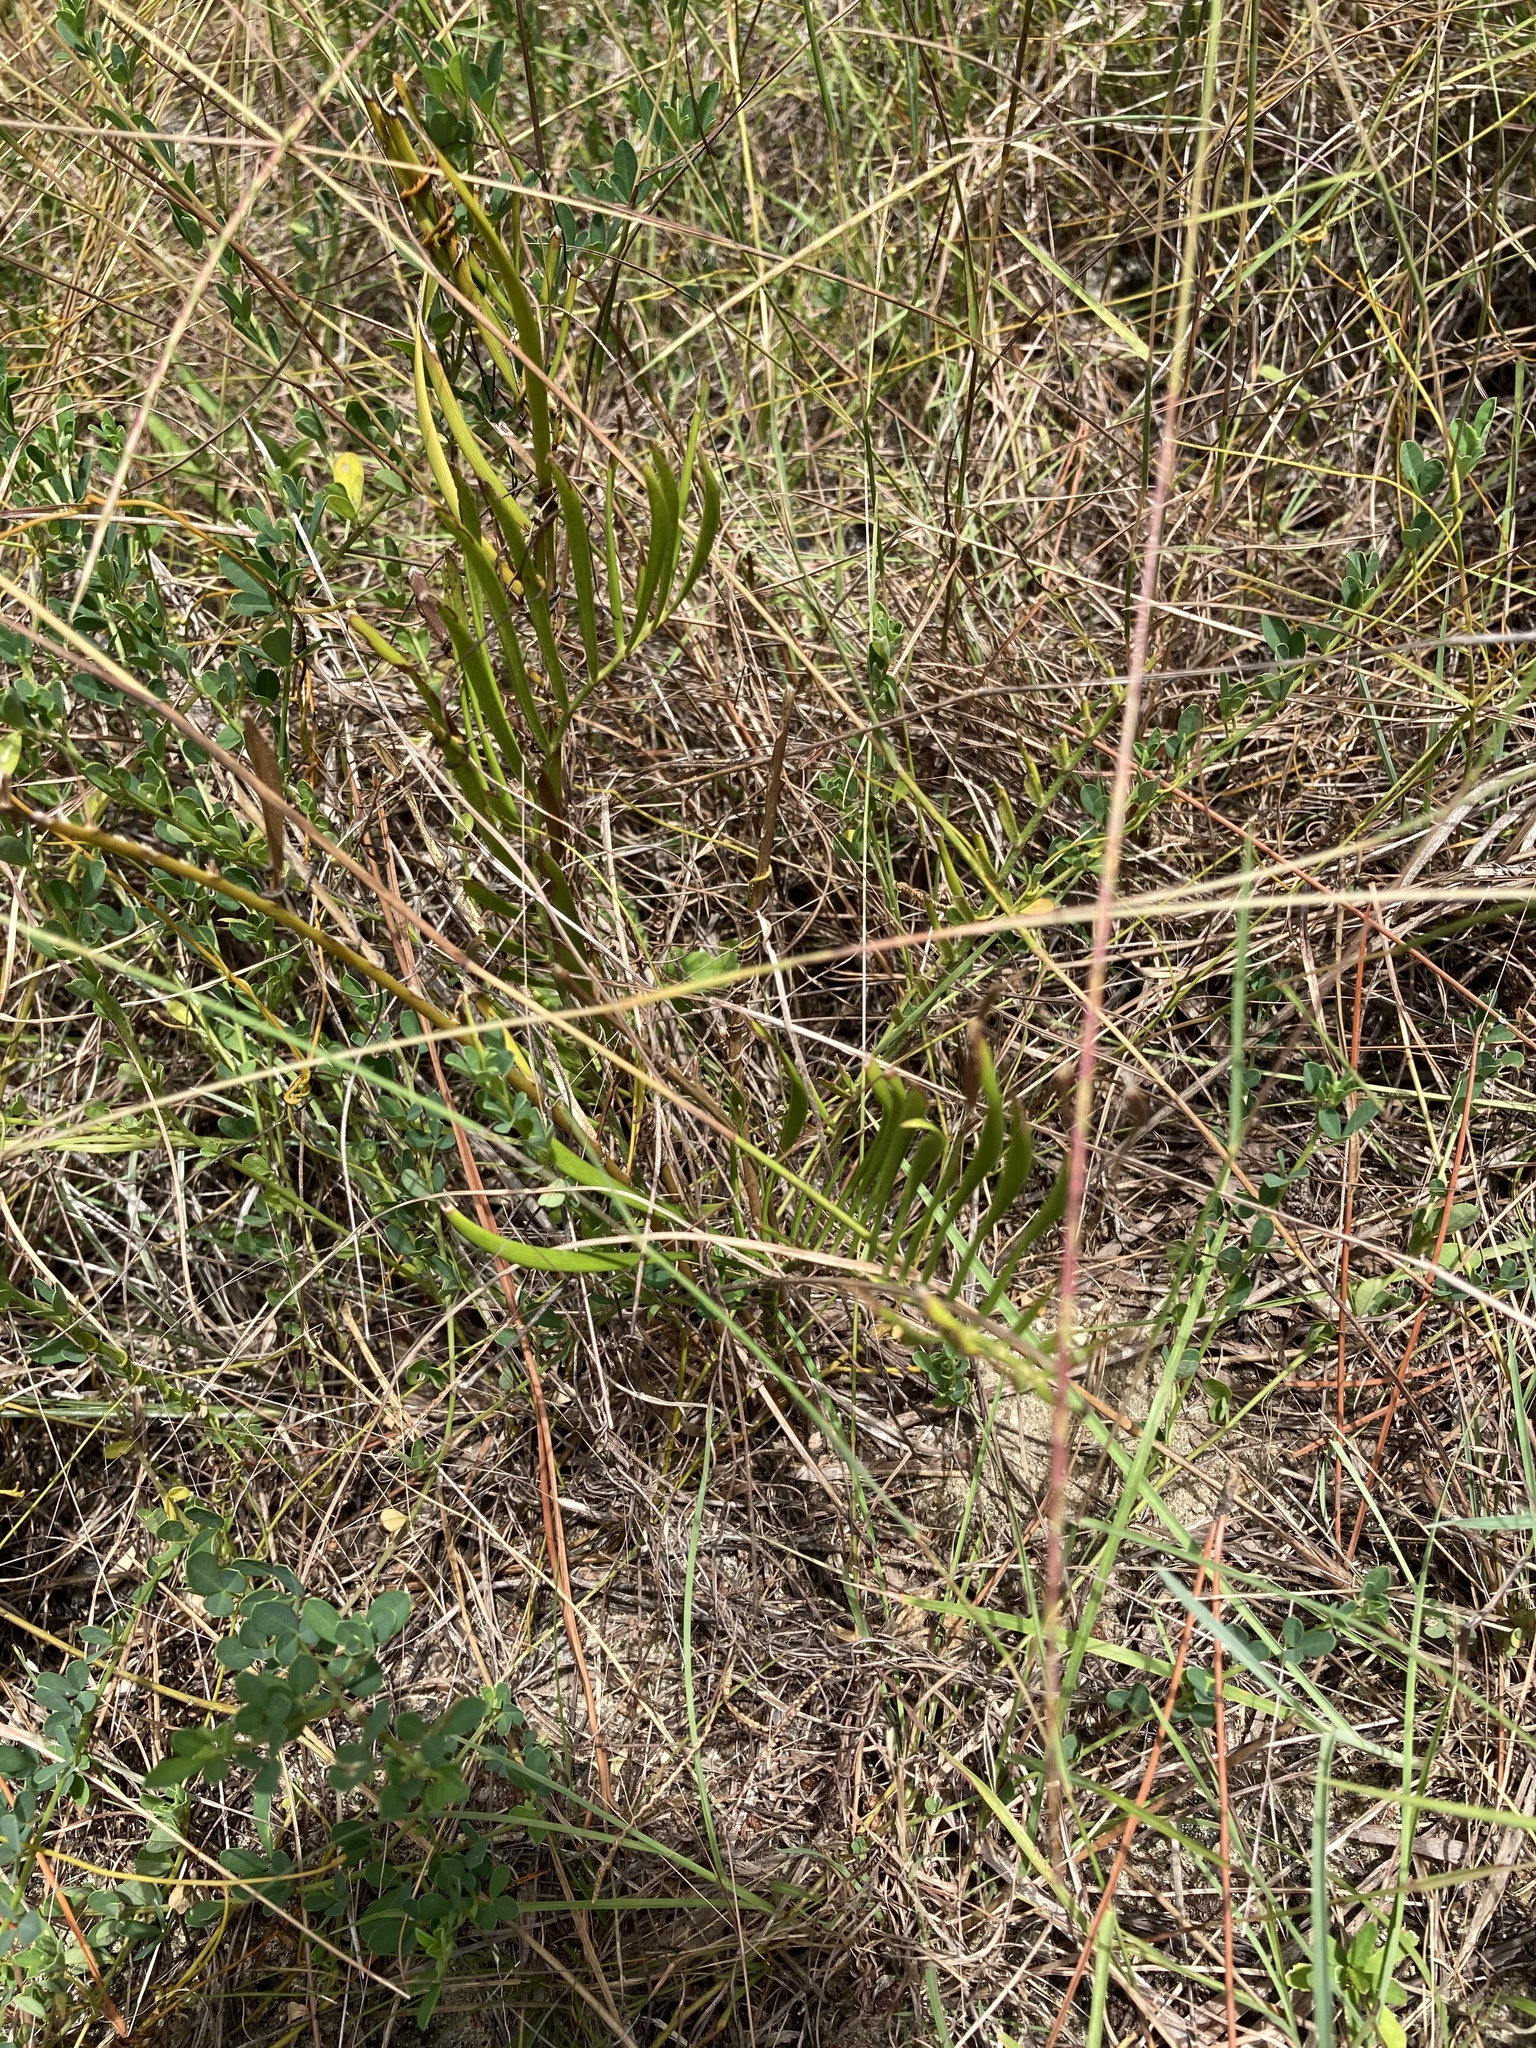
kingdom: Plantae
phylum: Tracheophyta
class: Cycadopsida
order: Cycadales
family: Zamiaceae
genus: Zamia
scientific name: Zamia integrifolia
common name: Florida arrowroot
